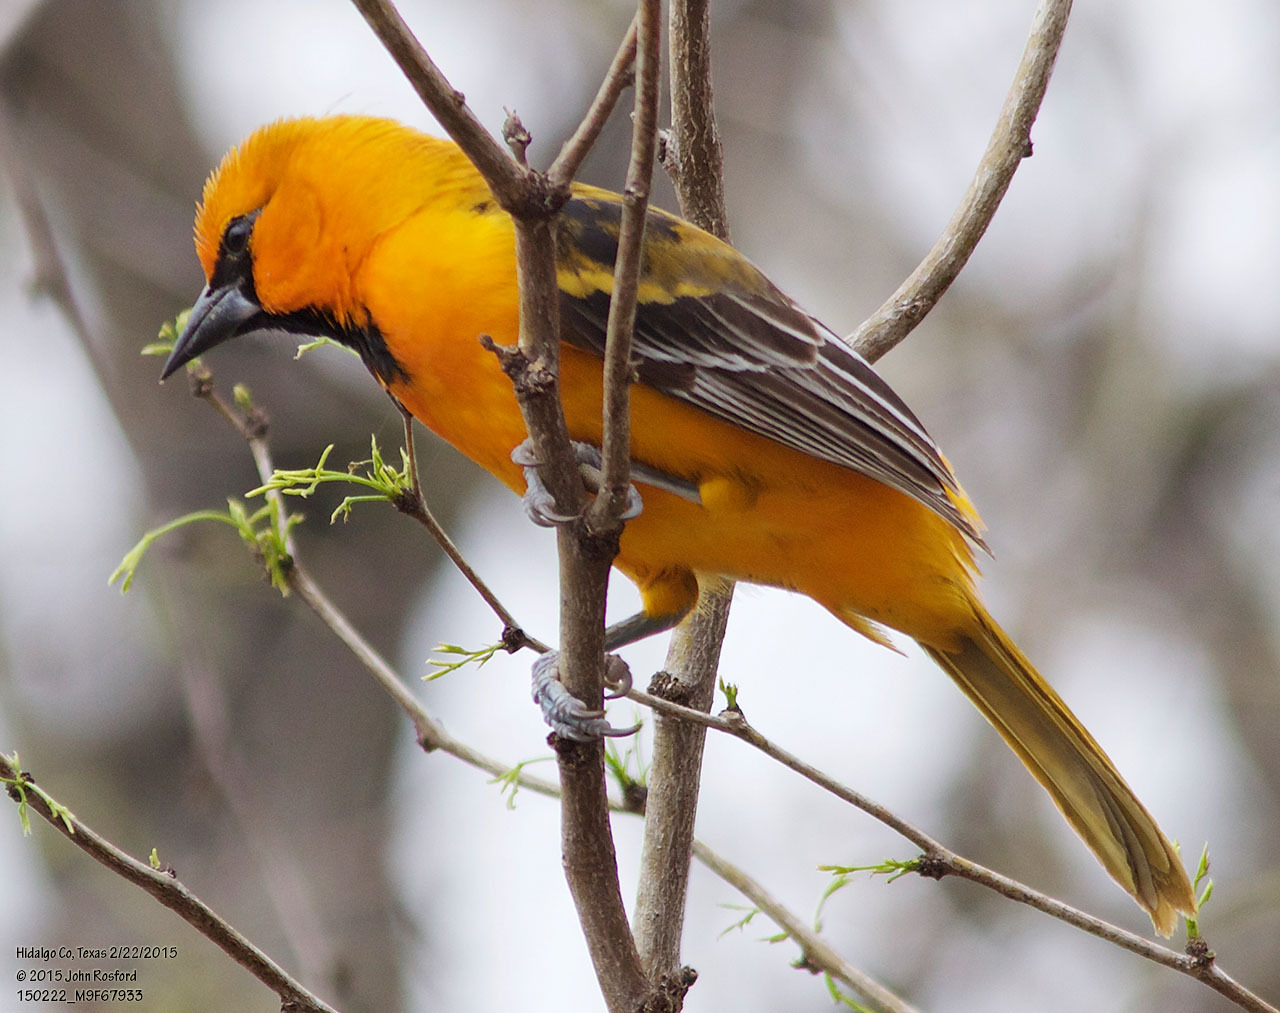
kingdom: Animalia
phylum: Chordata
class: Aves
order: Passeriformes
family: Icteridae
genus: Icterus
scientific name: Icterus gularis
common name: Altamira oriole
